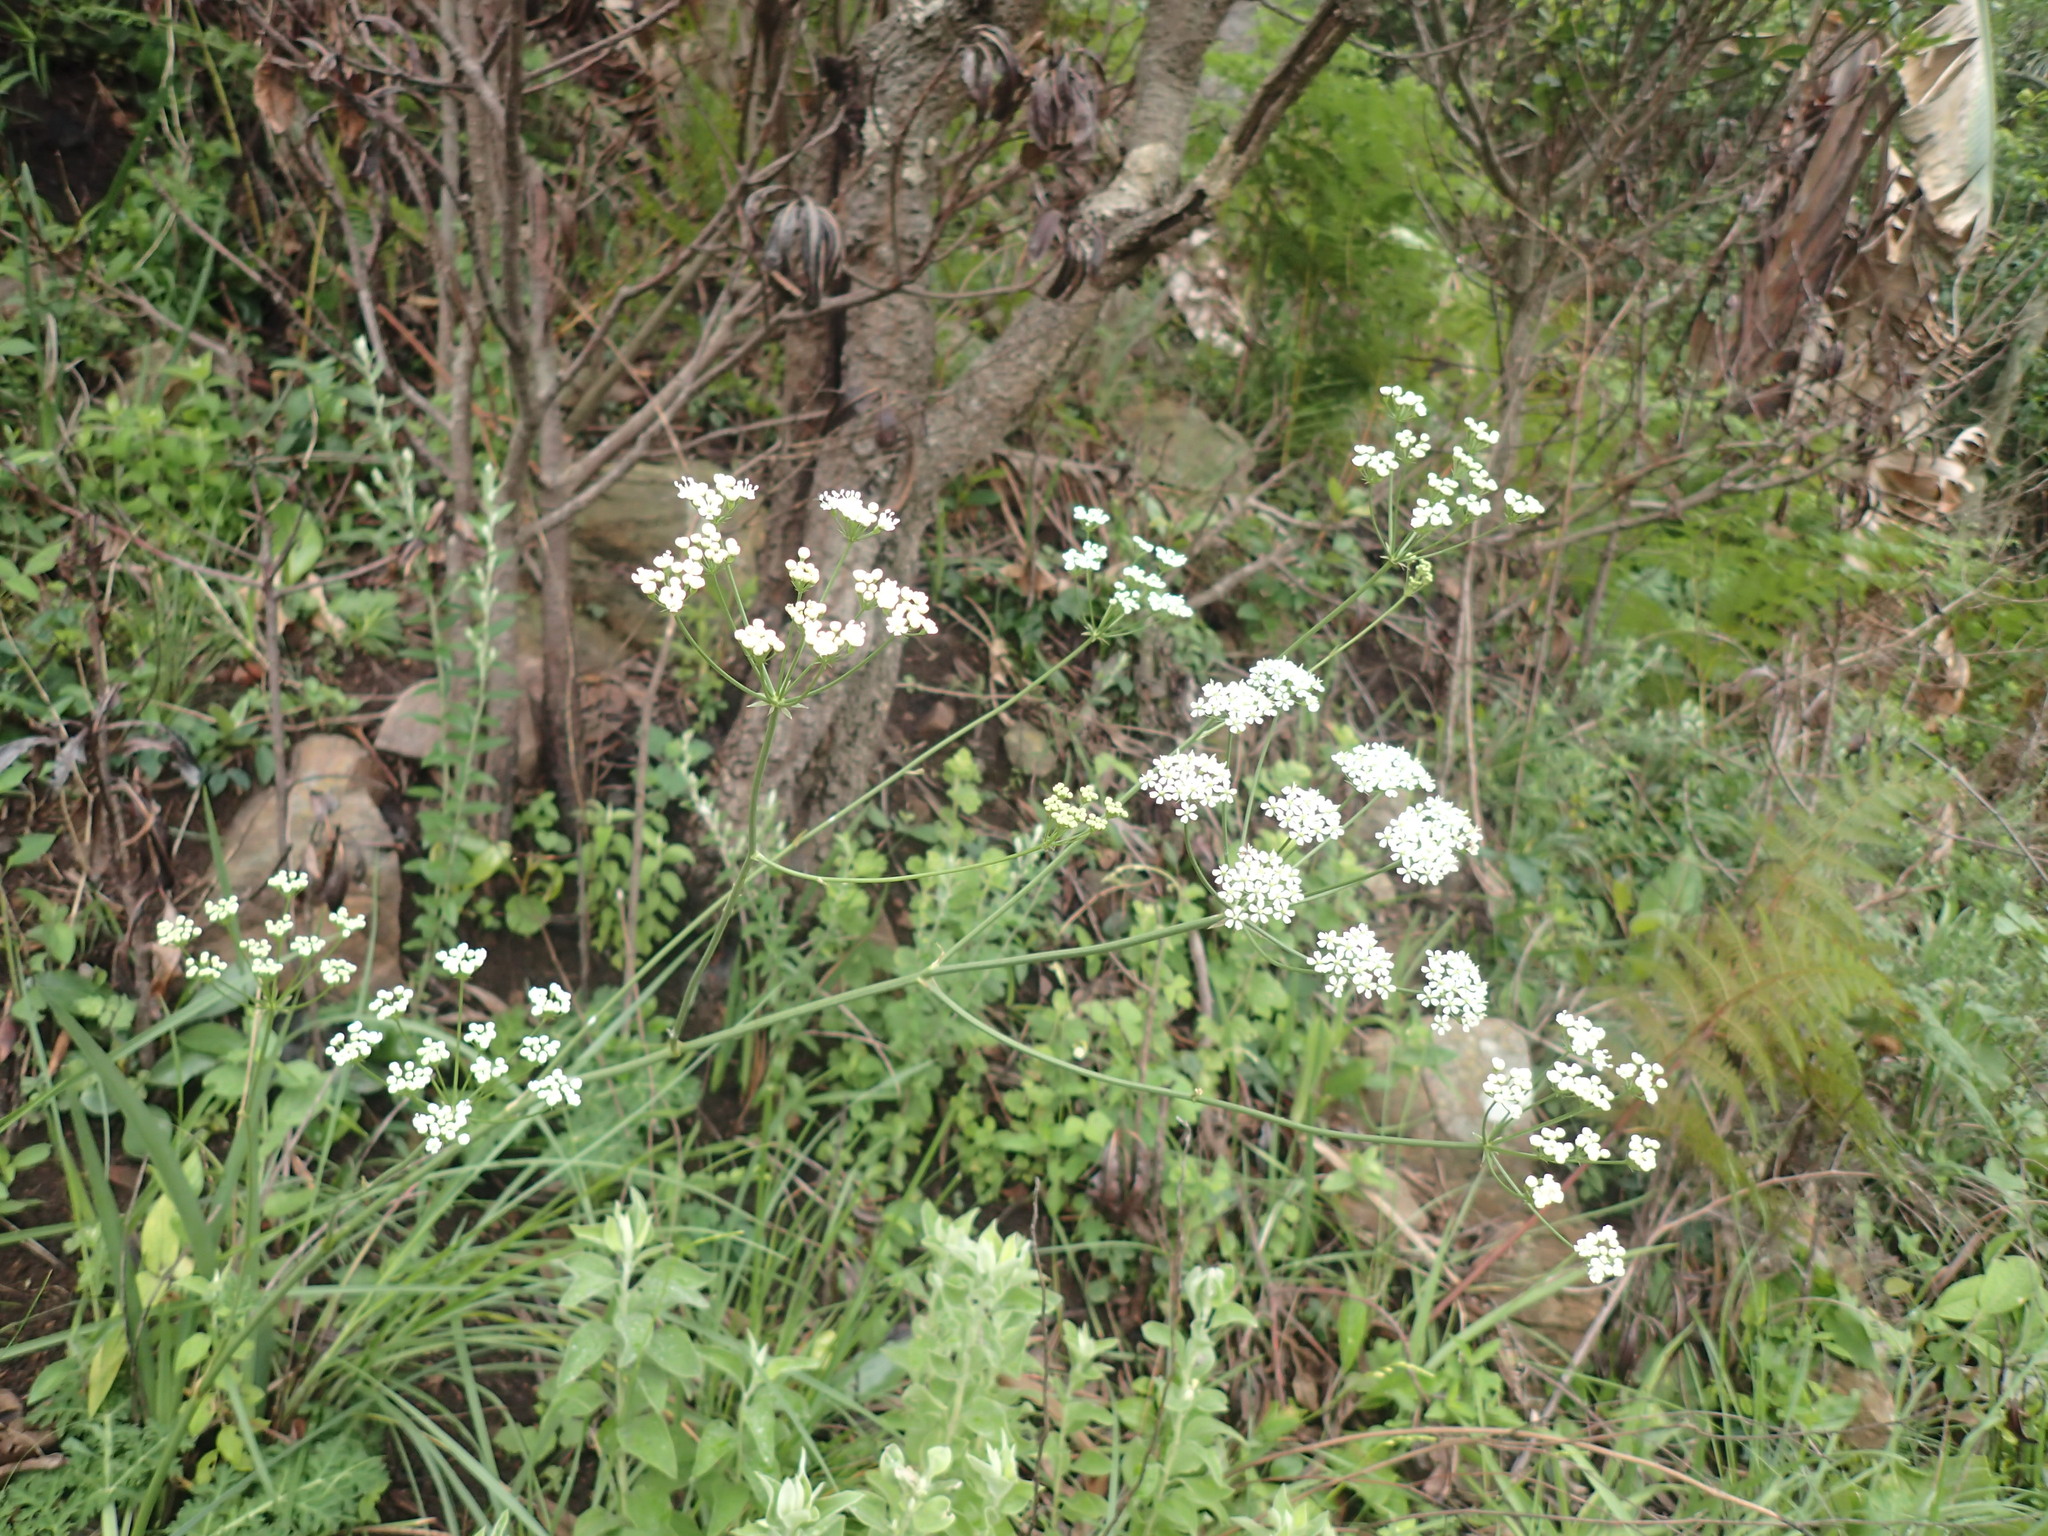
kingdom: Plantae
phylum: Tracheophyta
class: Magnoliopsida
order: Apiales
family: Apiaceae
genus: Lichtensteinia
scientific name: Lichtensteinia interrupta
